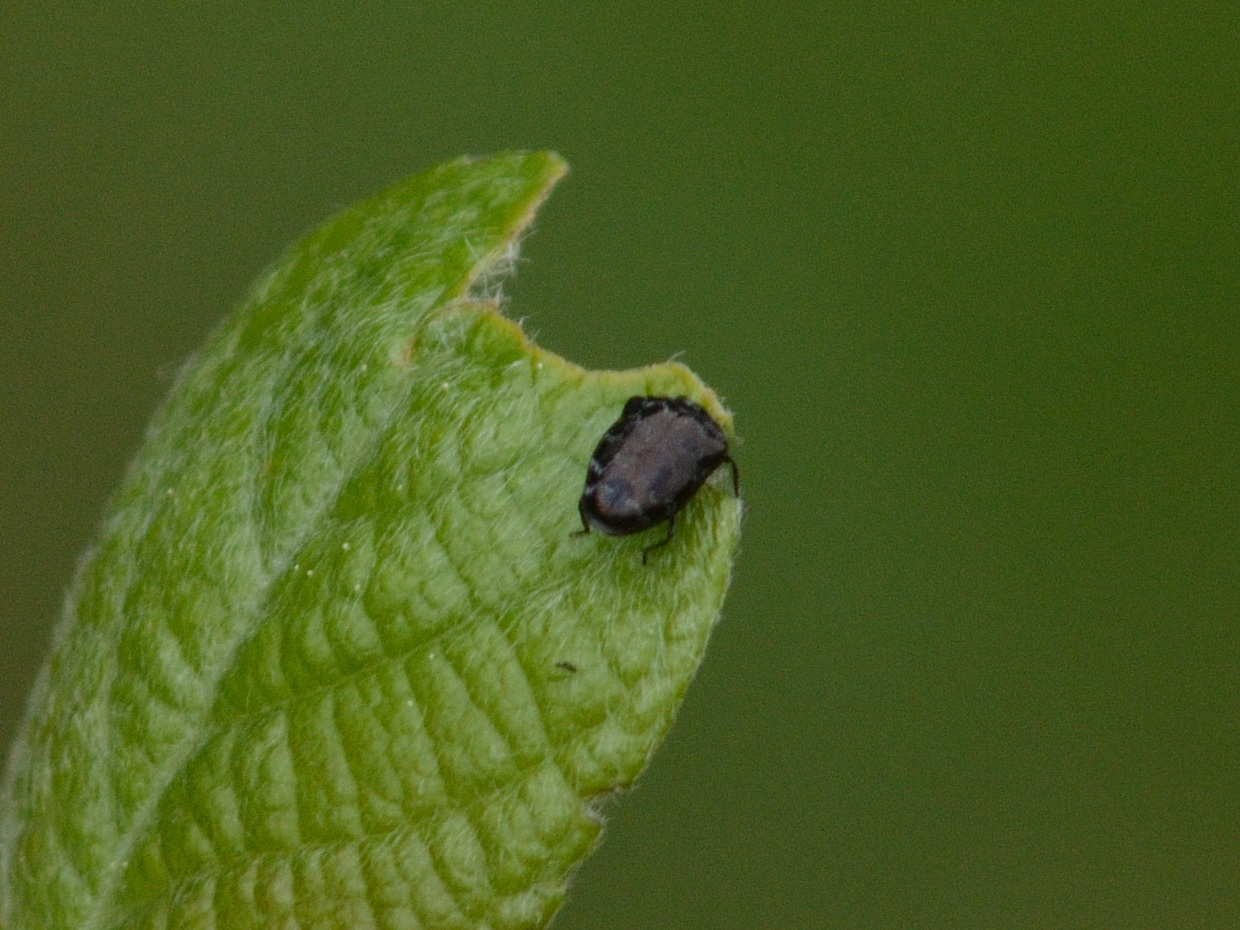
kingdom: Animalia
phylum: Arthropoda
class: Insecta
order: Coleoptera
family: Buprestidae
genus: Trachys
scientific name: Trachys minutus
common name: Metallic wood-boring beetle
